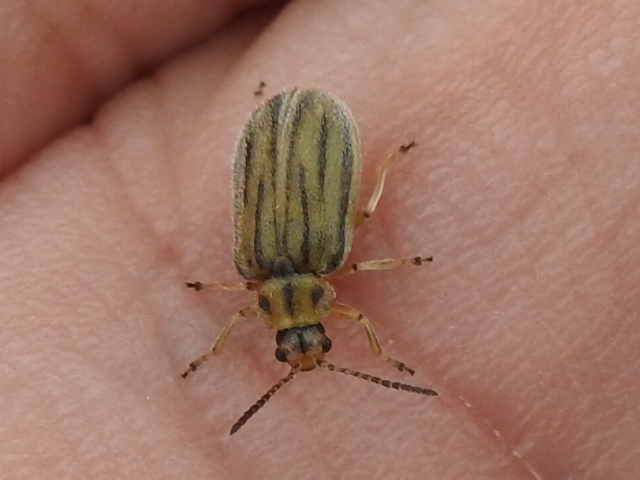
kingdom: Animalia
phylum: Arthropoda
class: Insecta
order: Coleoptera
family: Chrysomelidae
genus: Ophraella
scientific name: Ophraella communa
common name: Ragweed leaf beetle
